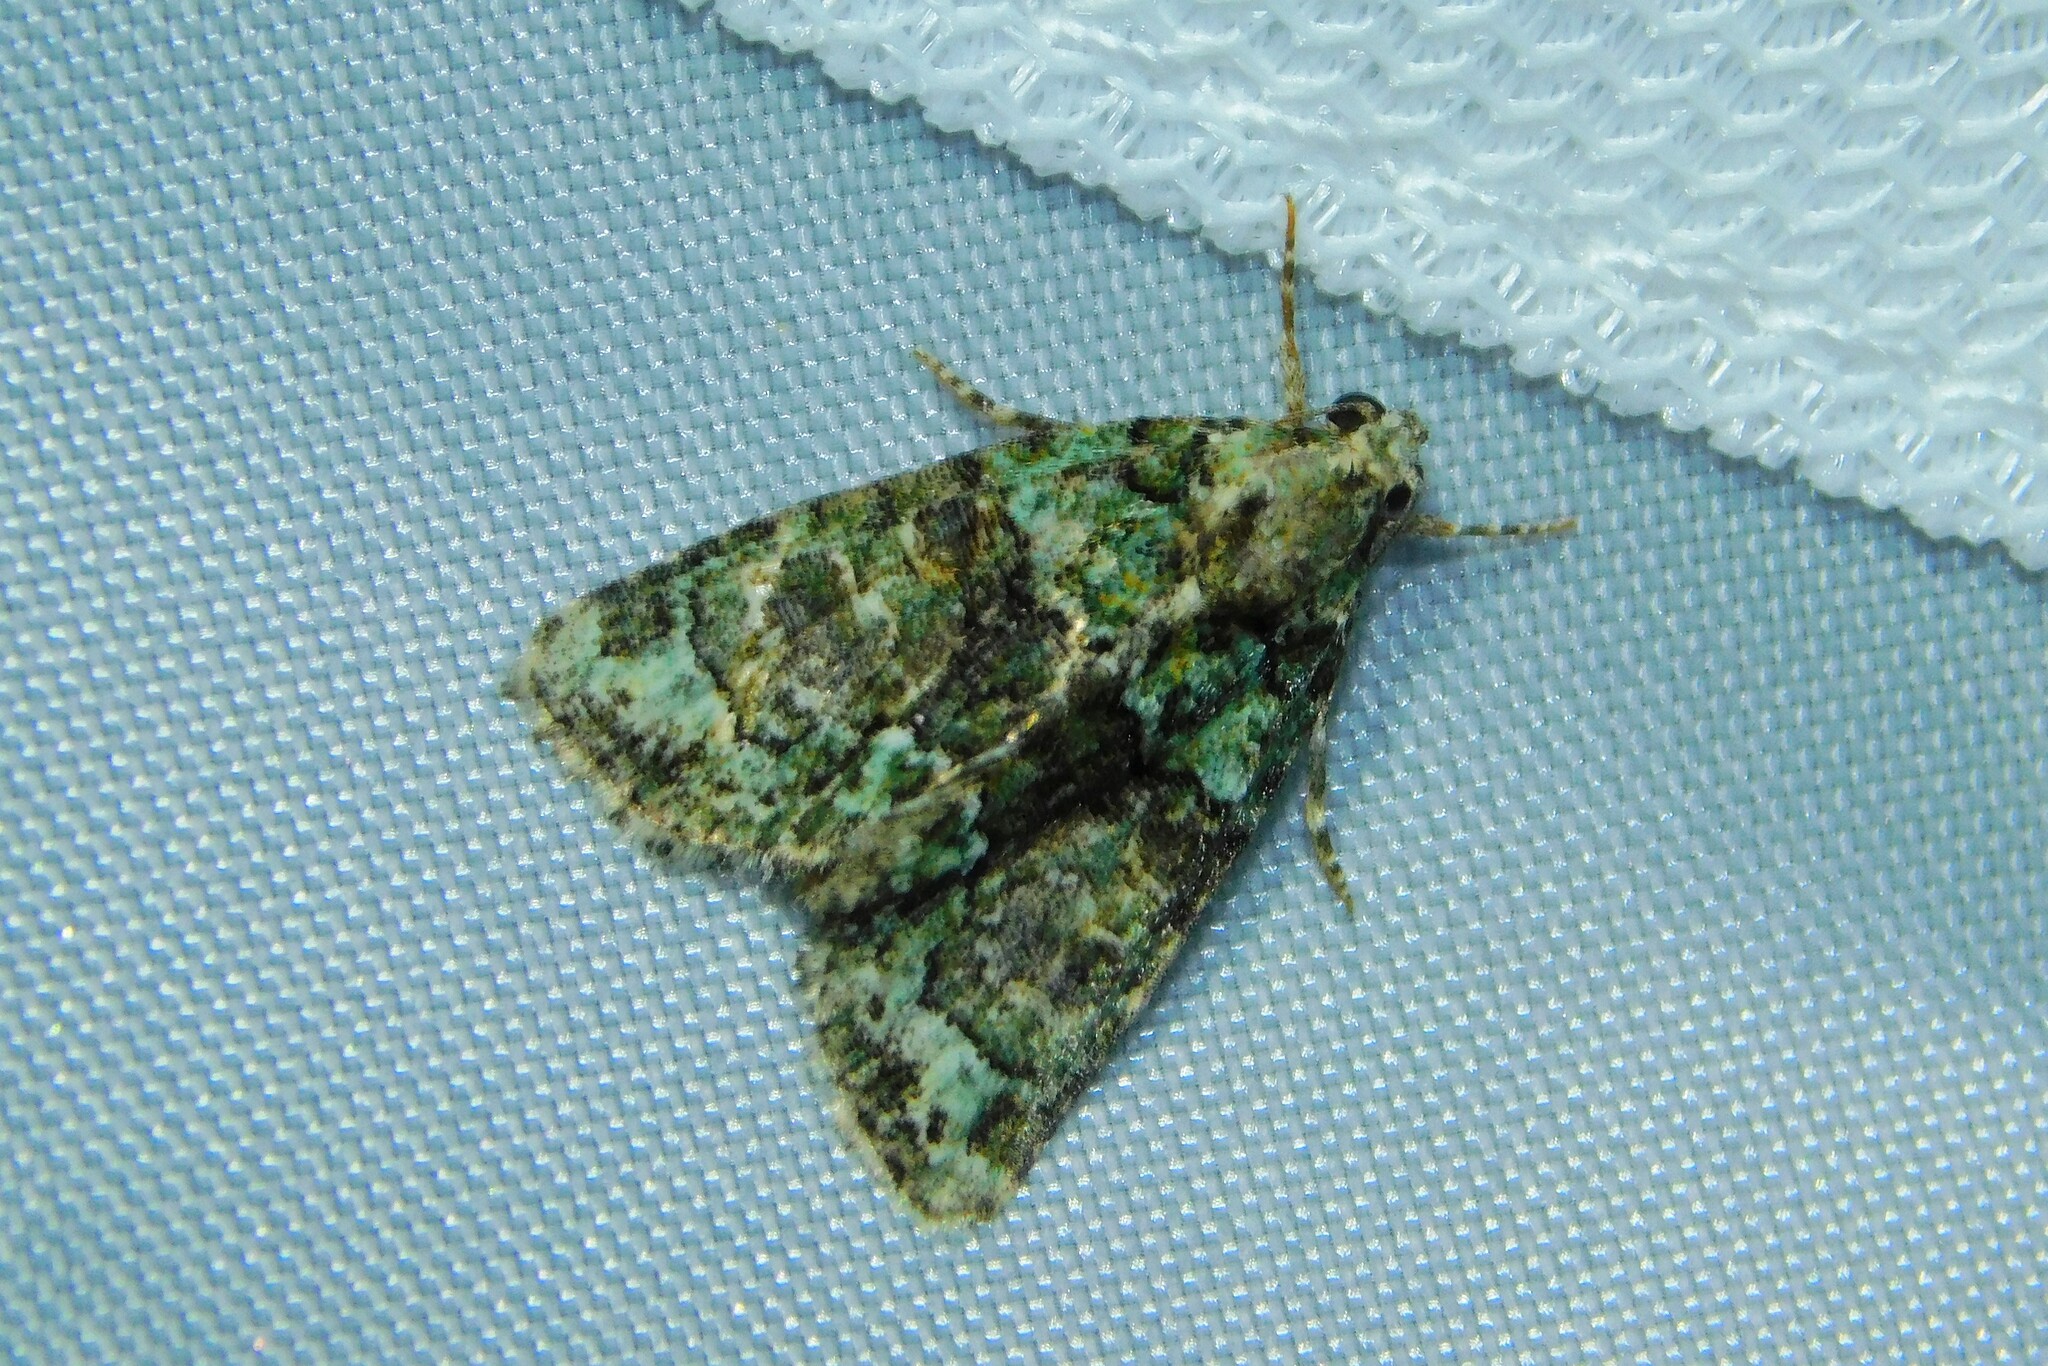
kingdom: Animalia
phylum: Arthropoda
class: Insecta
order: Lepidoptera
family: Noctuidae
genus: Cryphia
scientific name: Cryphia algae
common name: Tree-lichen beauty
